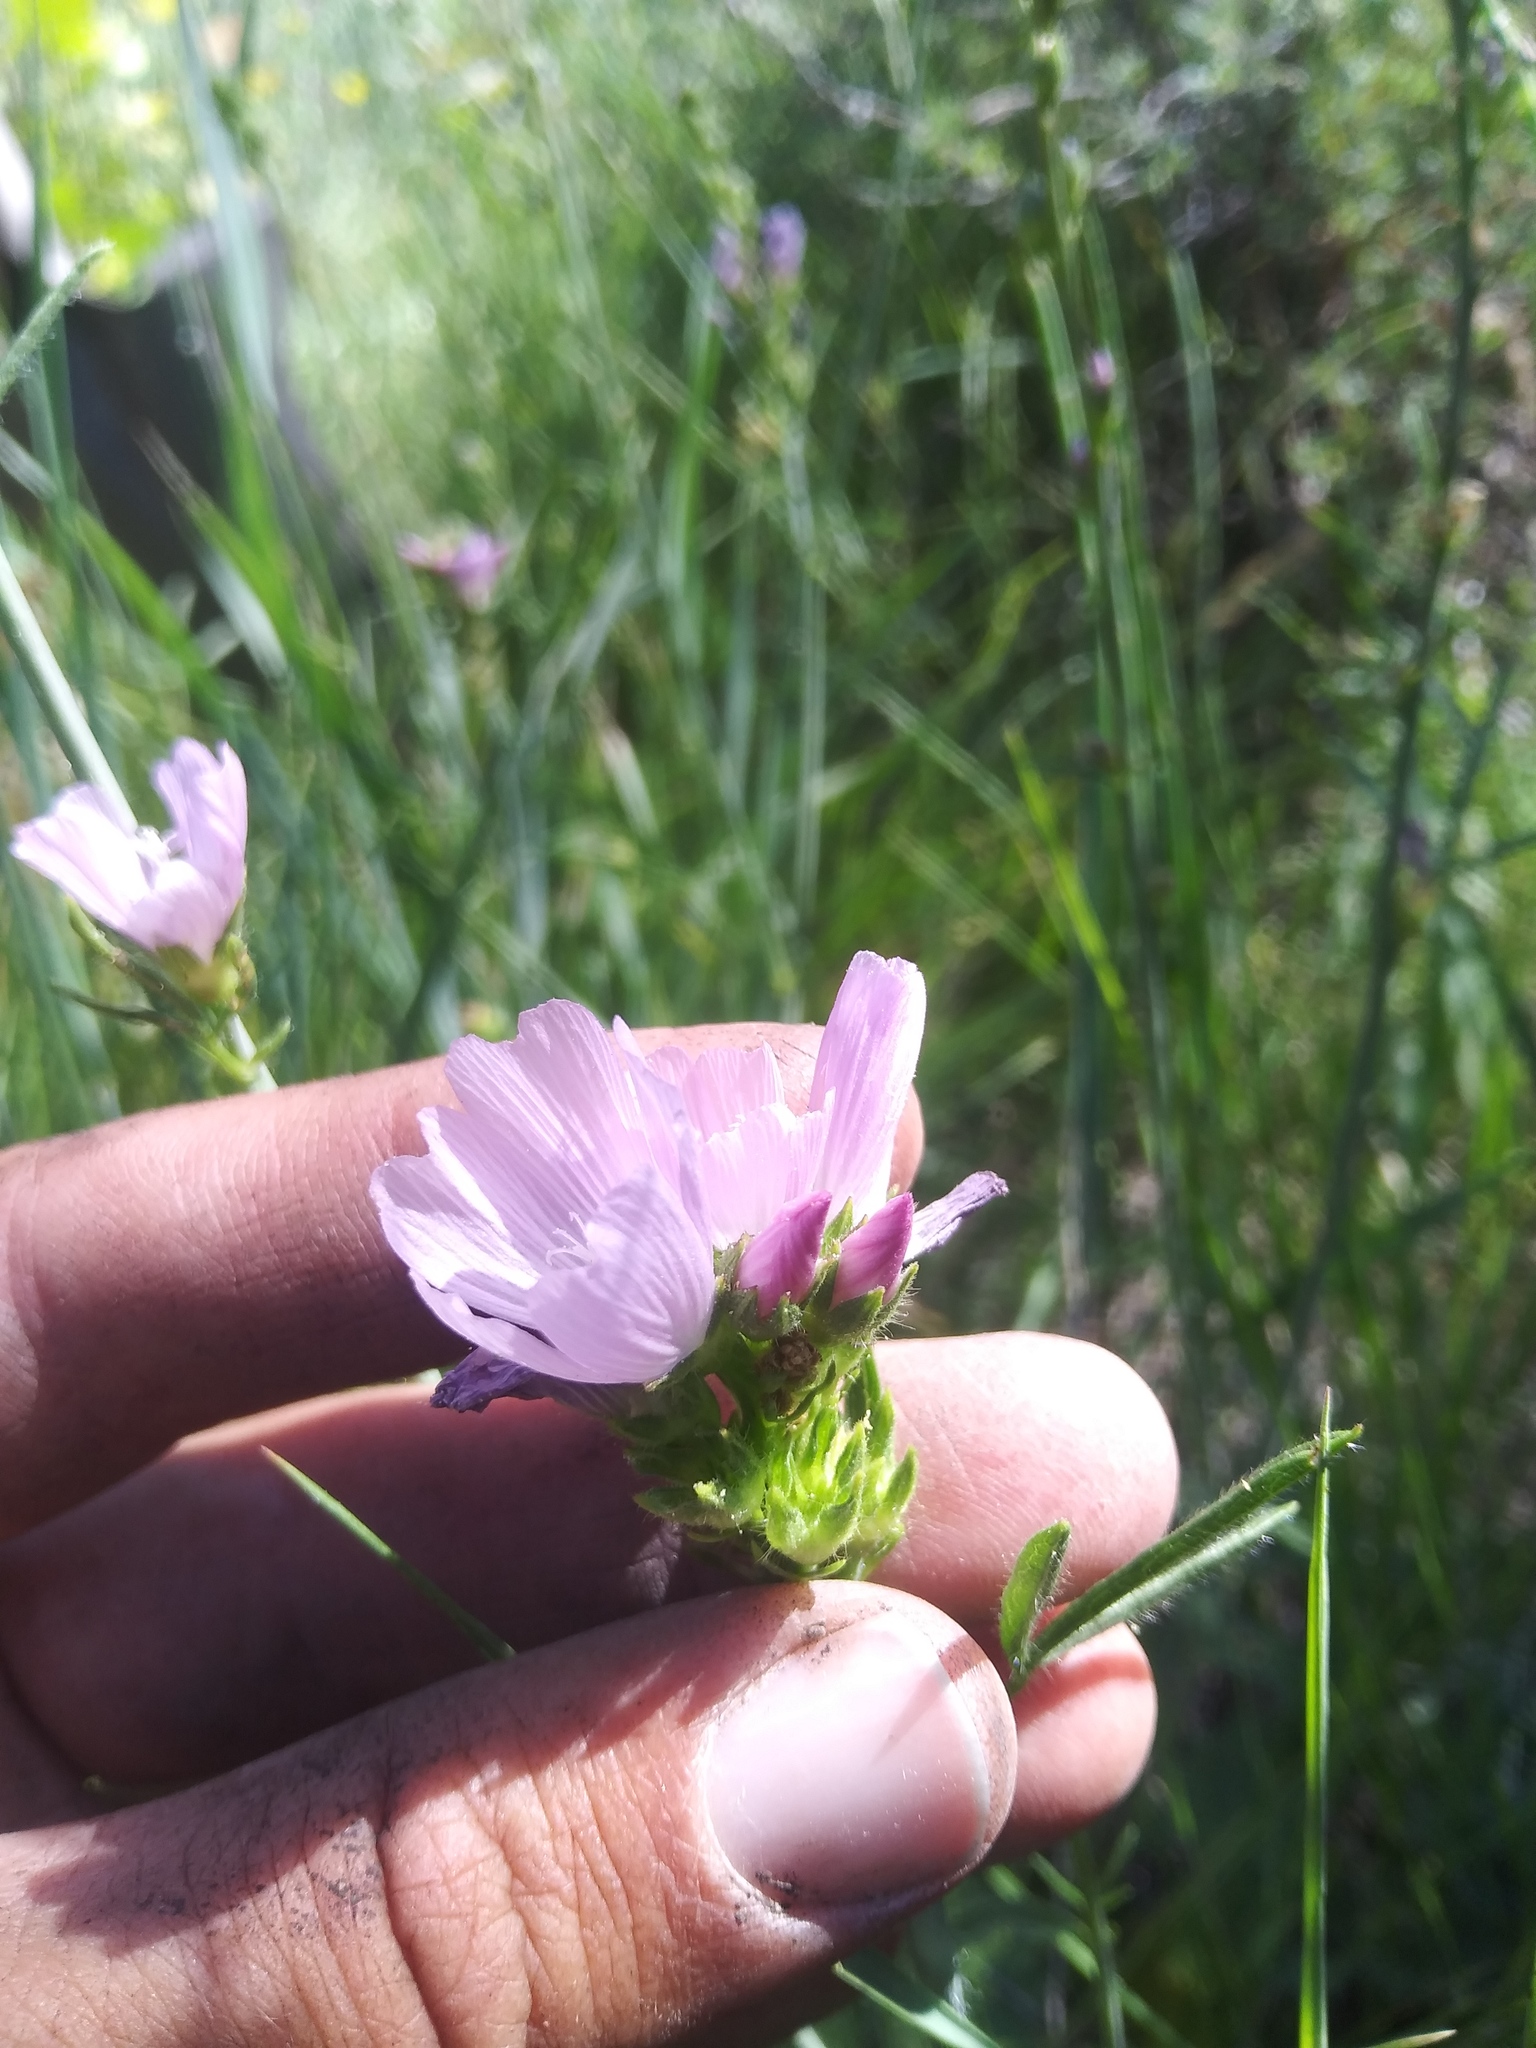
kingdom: Plantae
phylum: Tracheophyta
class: Magnoliopsida
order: Malvales
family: Malvaceae
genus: Sidalcea
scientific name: Sidalcea oregana
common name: Oregon checker-mallow
